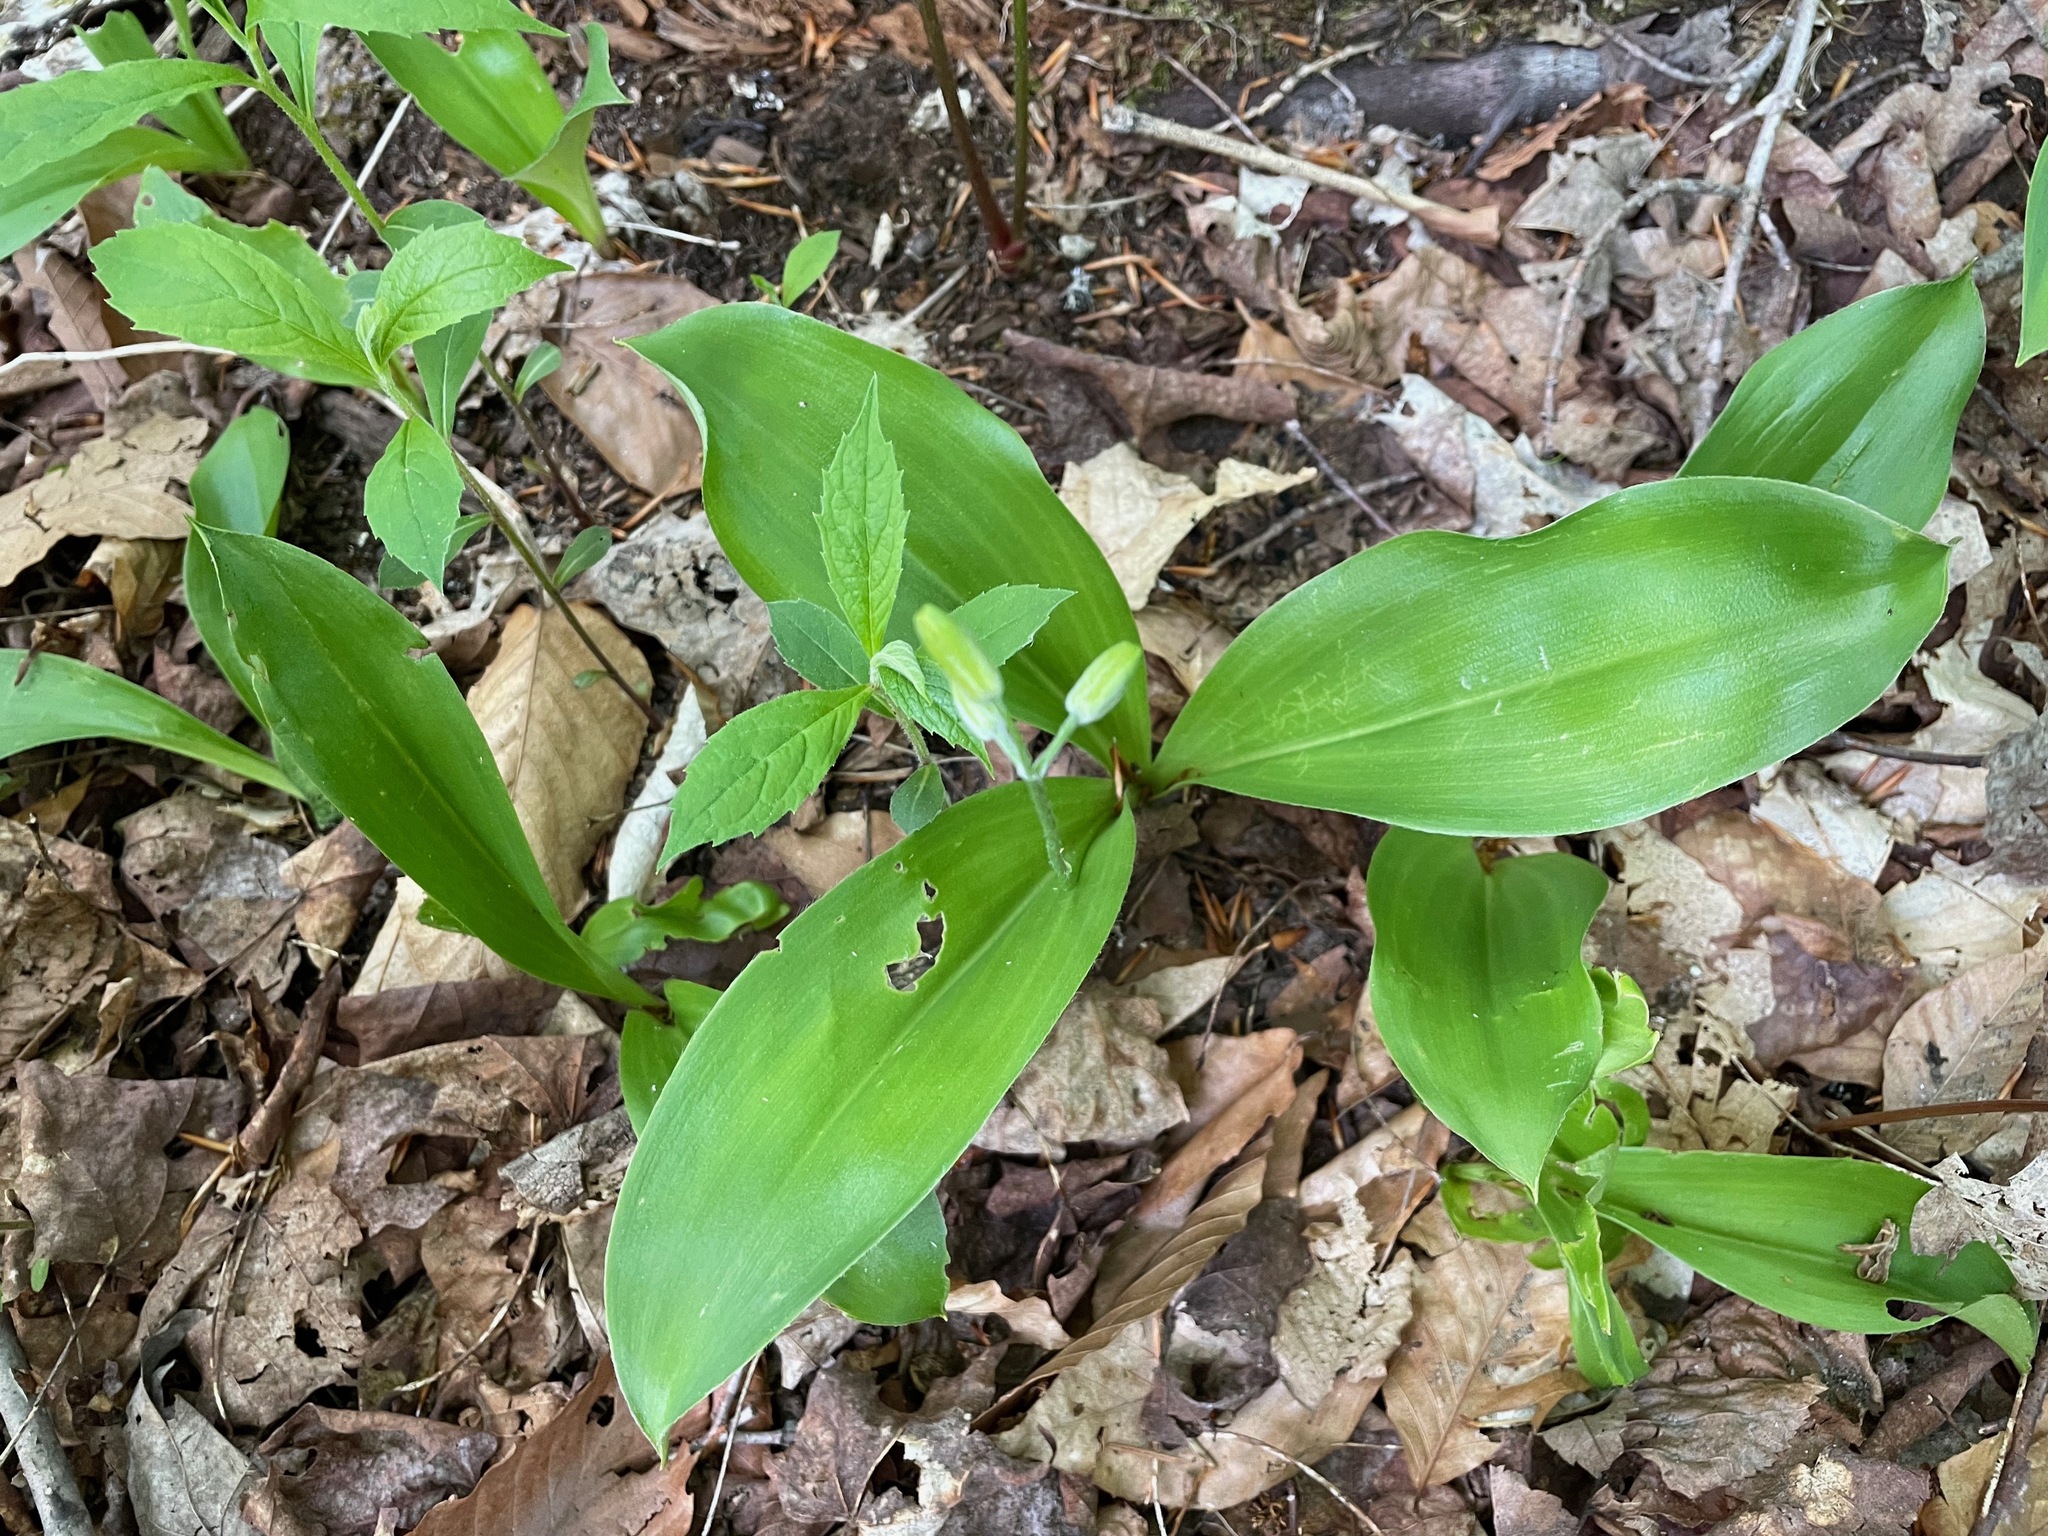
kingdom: Plantae
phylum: Tracheophyta
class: Liliopsida
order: Liliales
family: Liliaceae
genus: Clintonia
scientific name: Clintonia borealis
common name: Yellow clintonia
